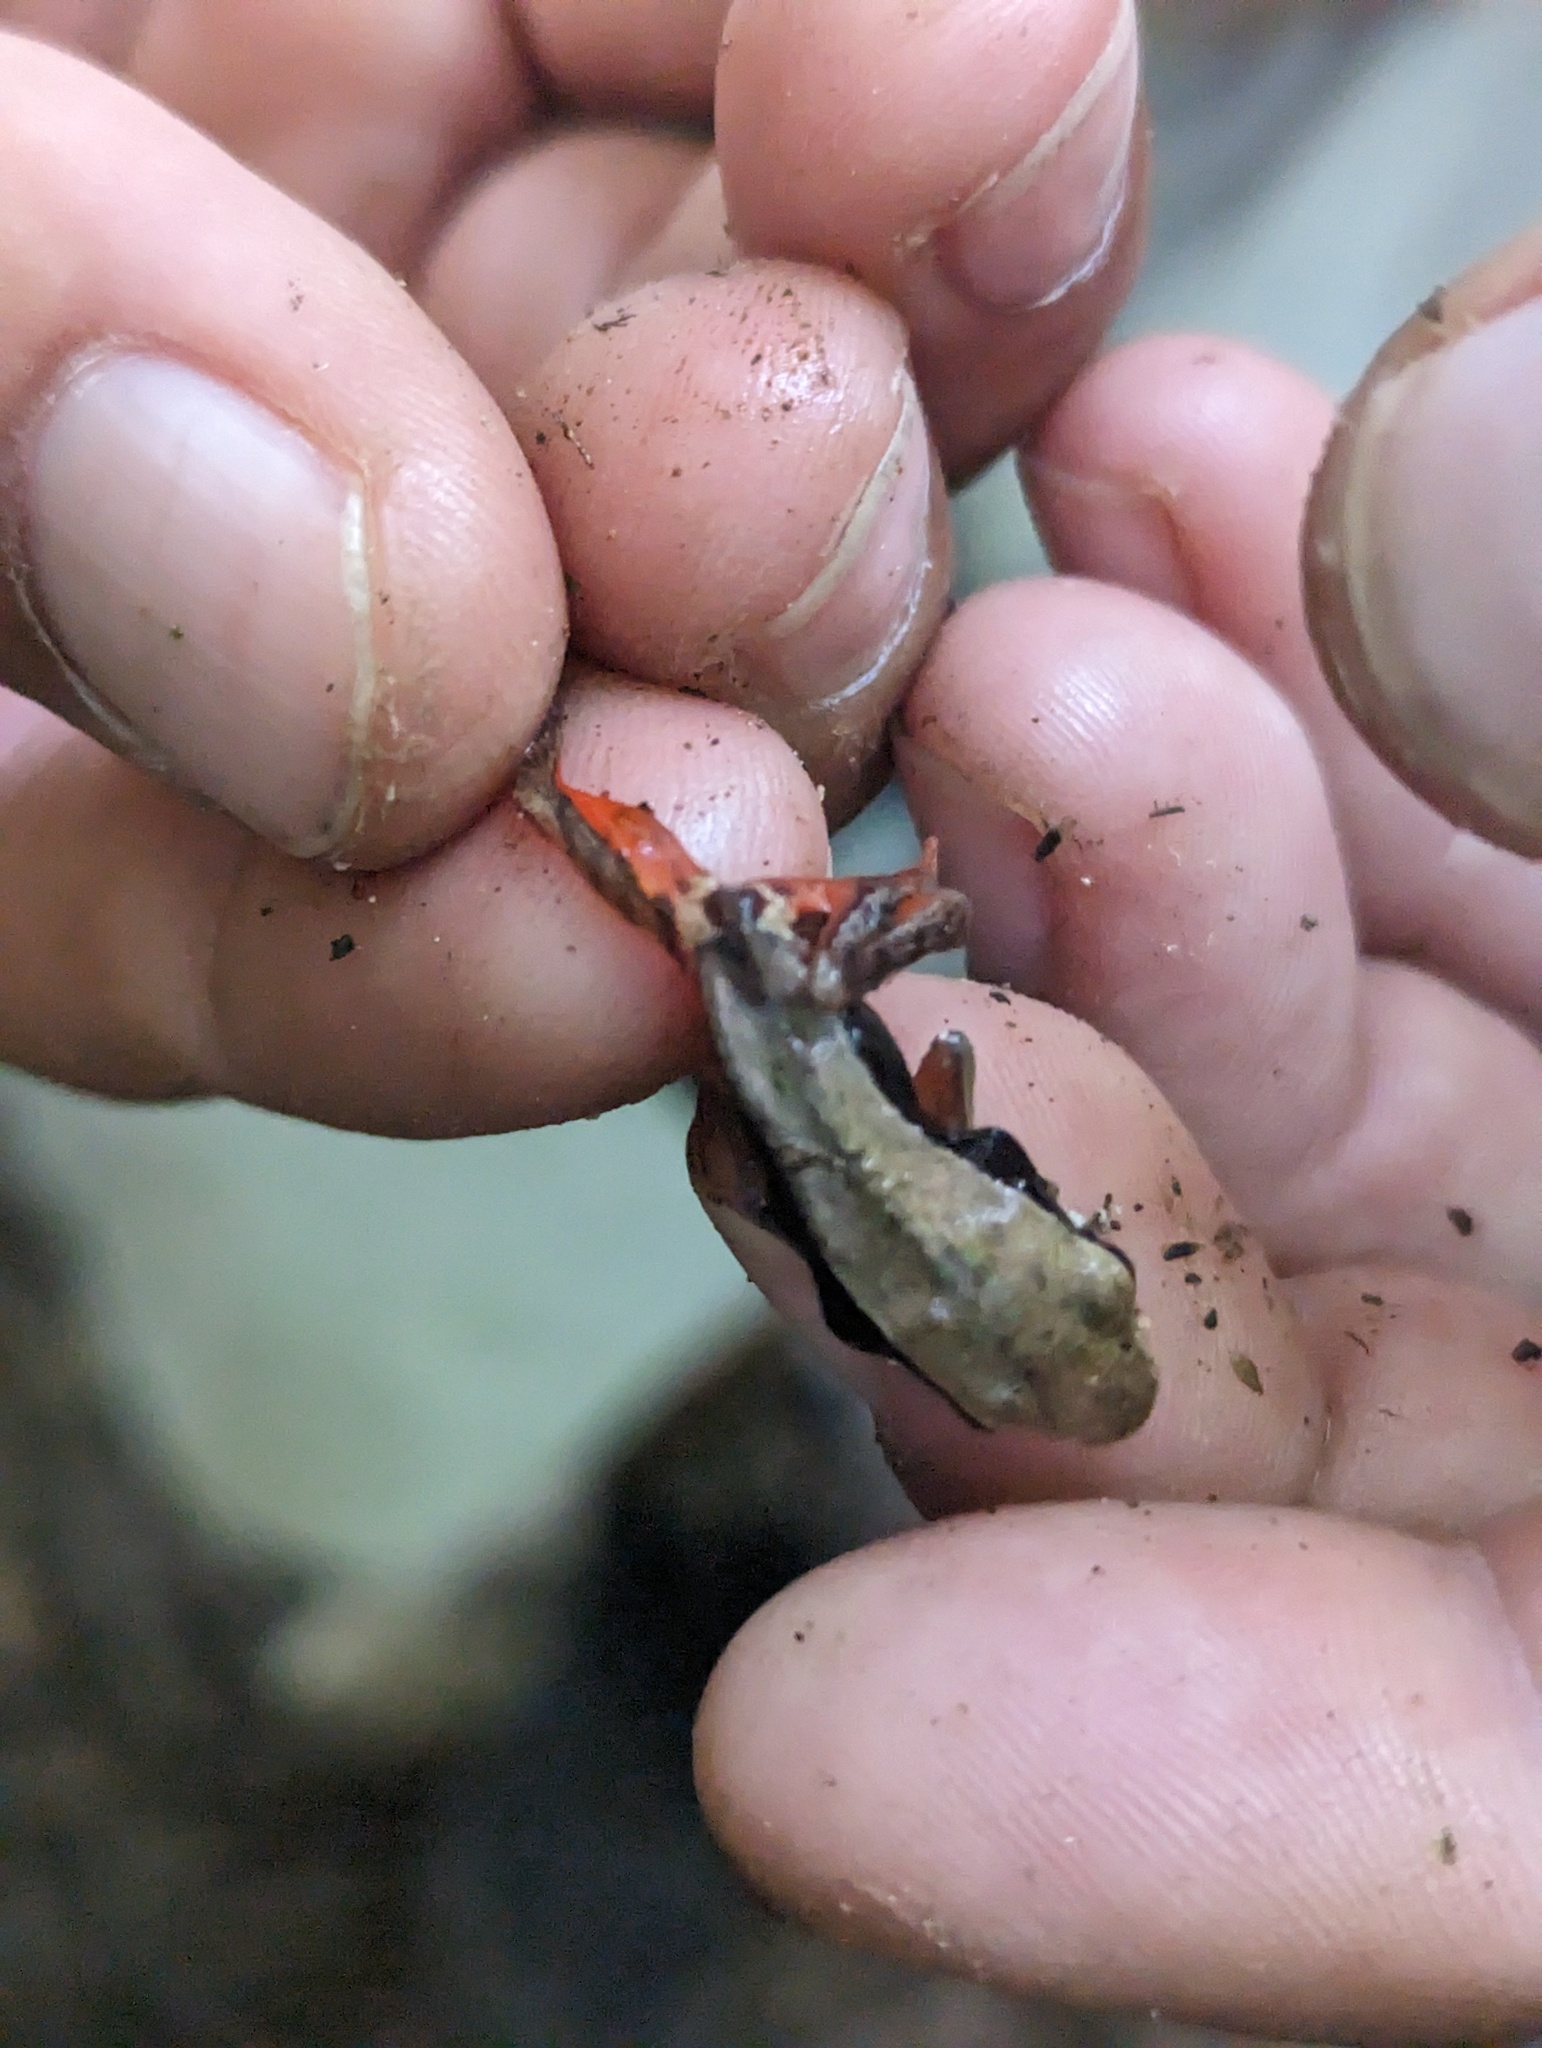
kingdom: Animalia
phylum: Chordata
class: Amphibia
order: Anura
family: Dendrobatidae
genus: Silverstoneia
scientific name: Silverstoneia flotator
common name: Rainforest rocket frog
